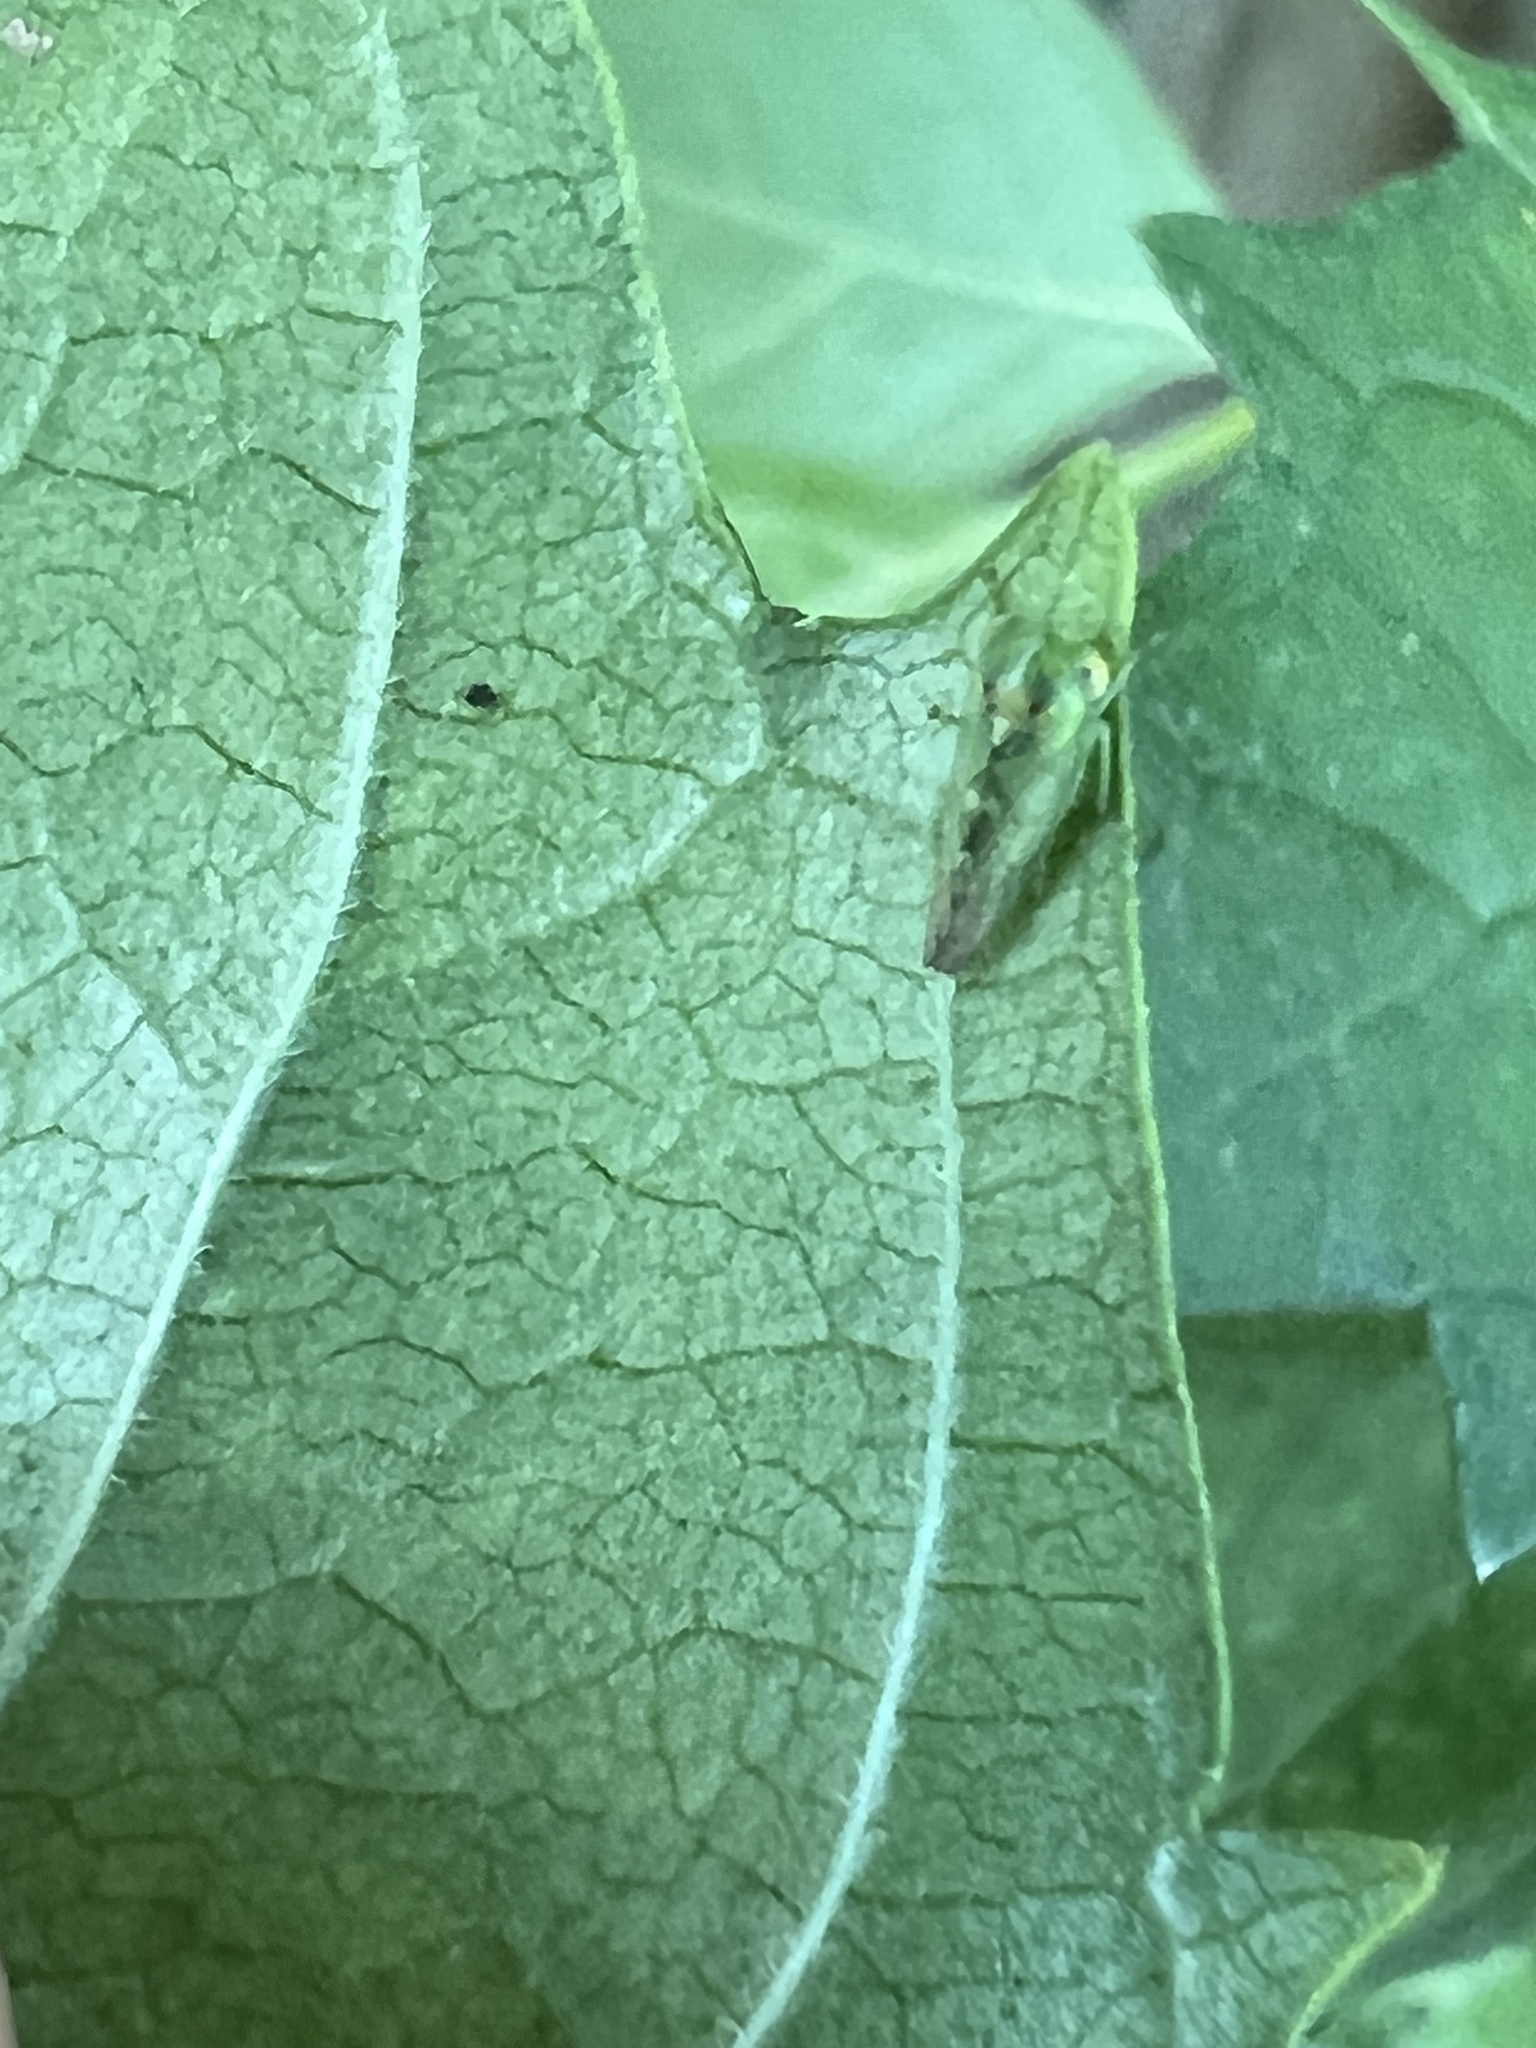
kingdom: Animalia
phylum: Arthropoda
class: Insecta
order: Hemiptera
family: Cicadellidae
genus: Idiocerus
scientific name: Idiocerus nervatus
